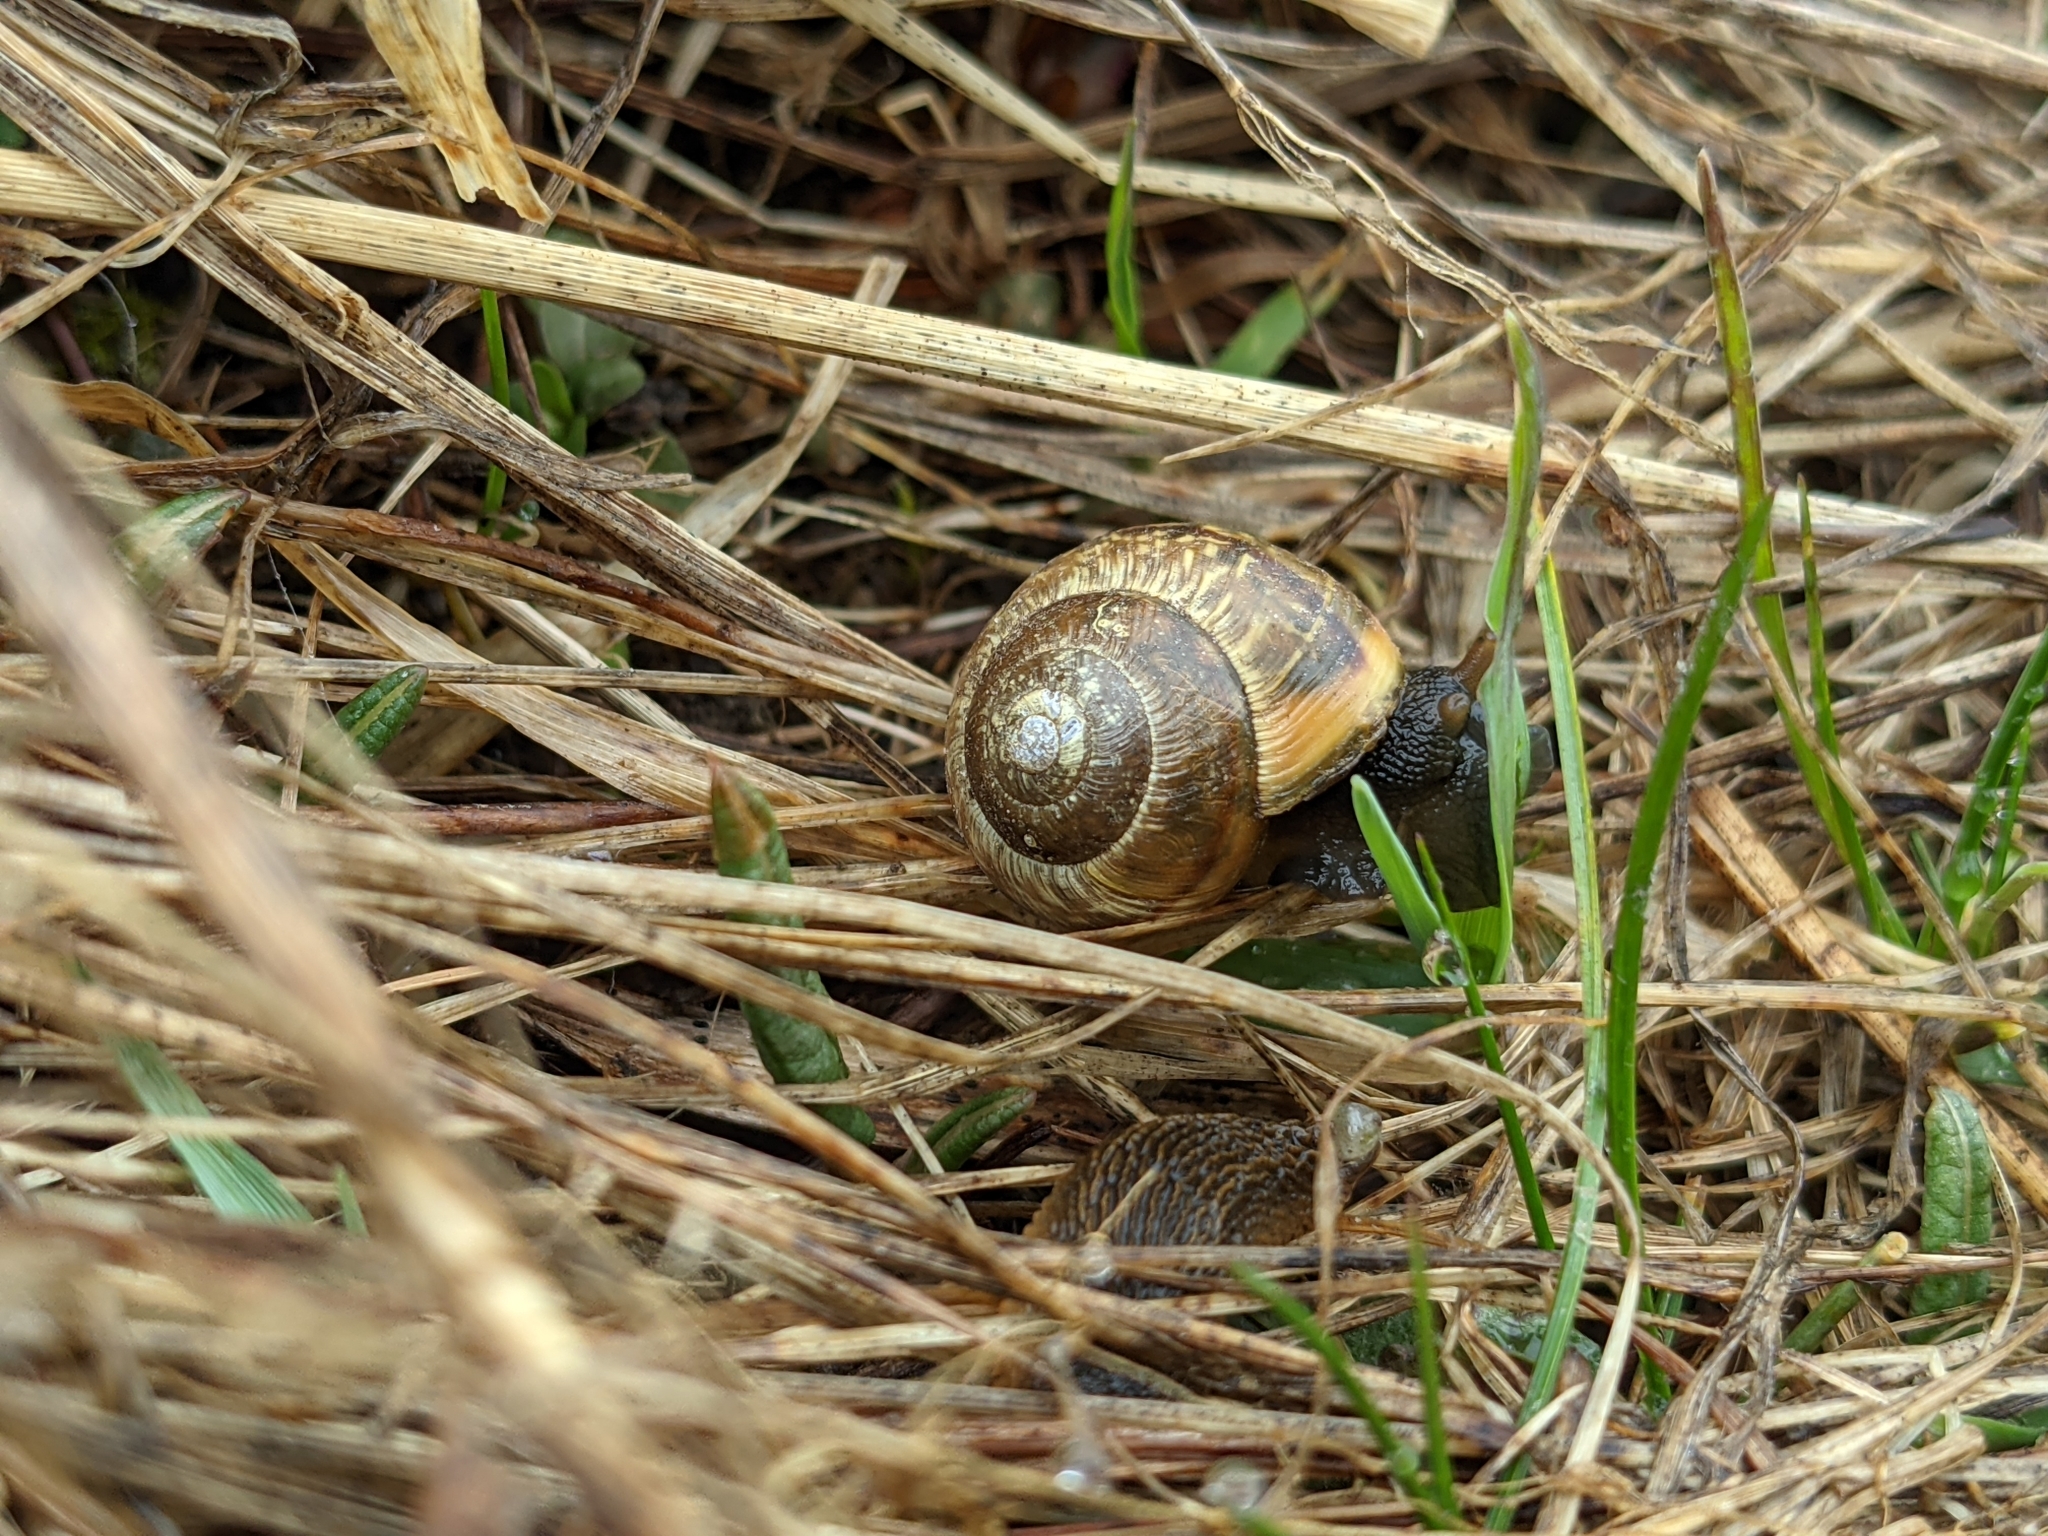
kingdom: Animalia
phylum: Mollusca
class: Gastropoda
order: Stylommatophora
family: Helicidae
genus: Arianta
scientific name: Arianta arbustorum
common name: Copse snail
